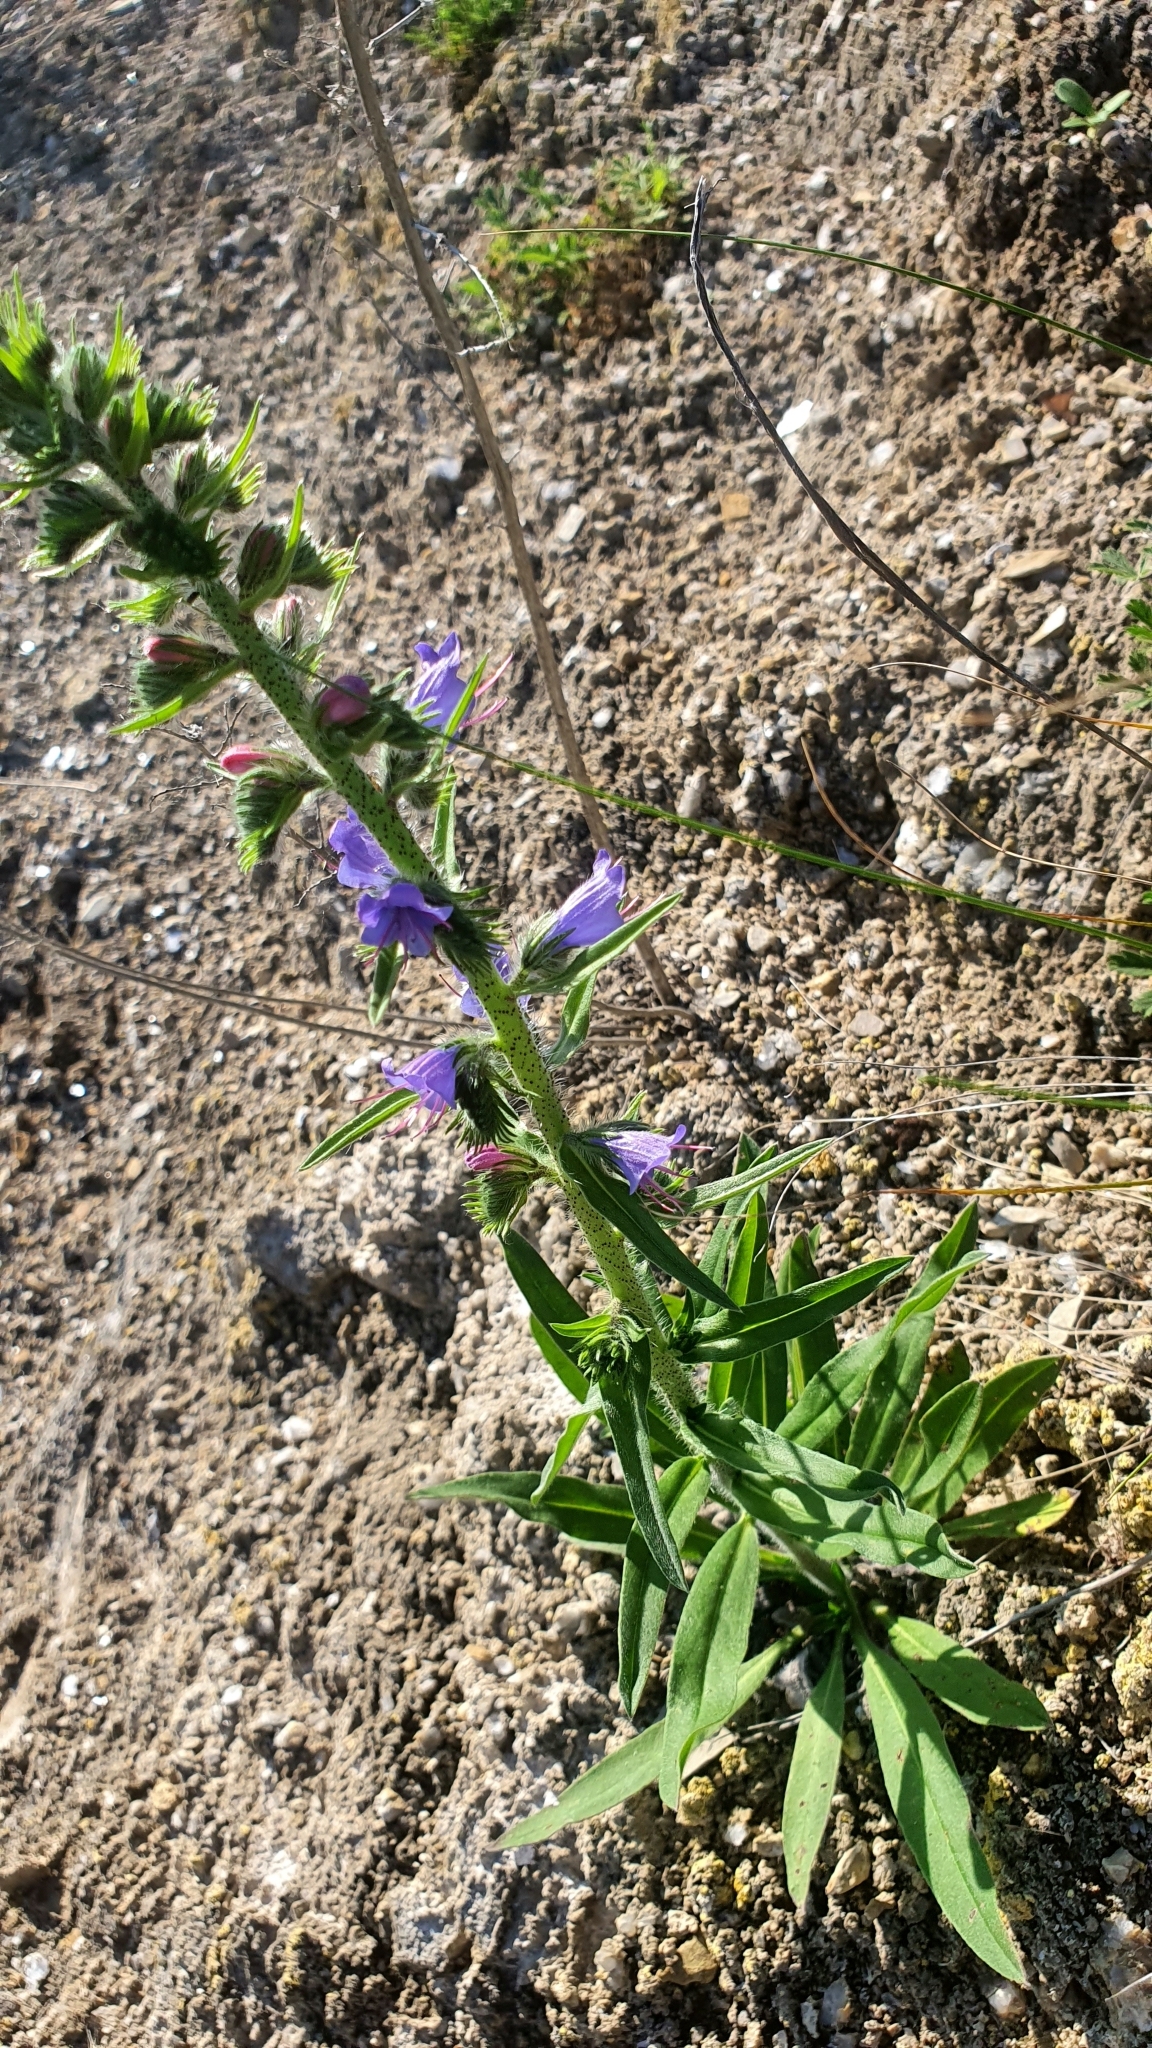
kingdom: Plantae
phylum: Tracheophyta
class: Magnoliopsida
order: Boraginales
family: Boraginaceae
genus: Echium
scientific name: Echium vulgare
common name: Common viper's bugloss
